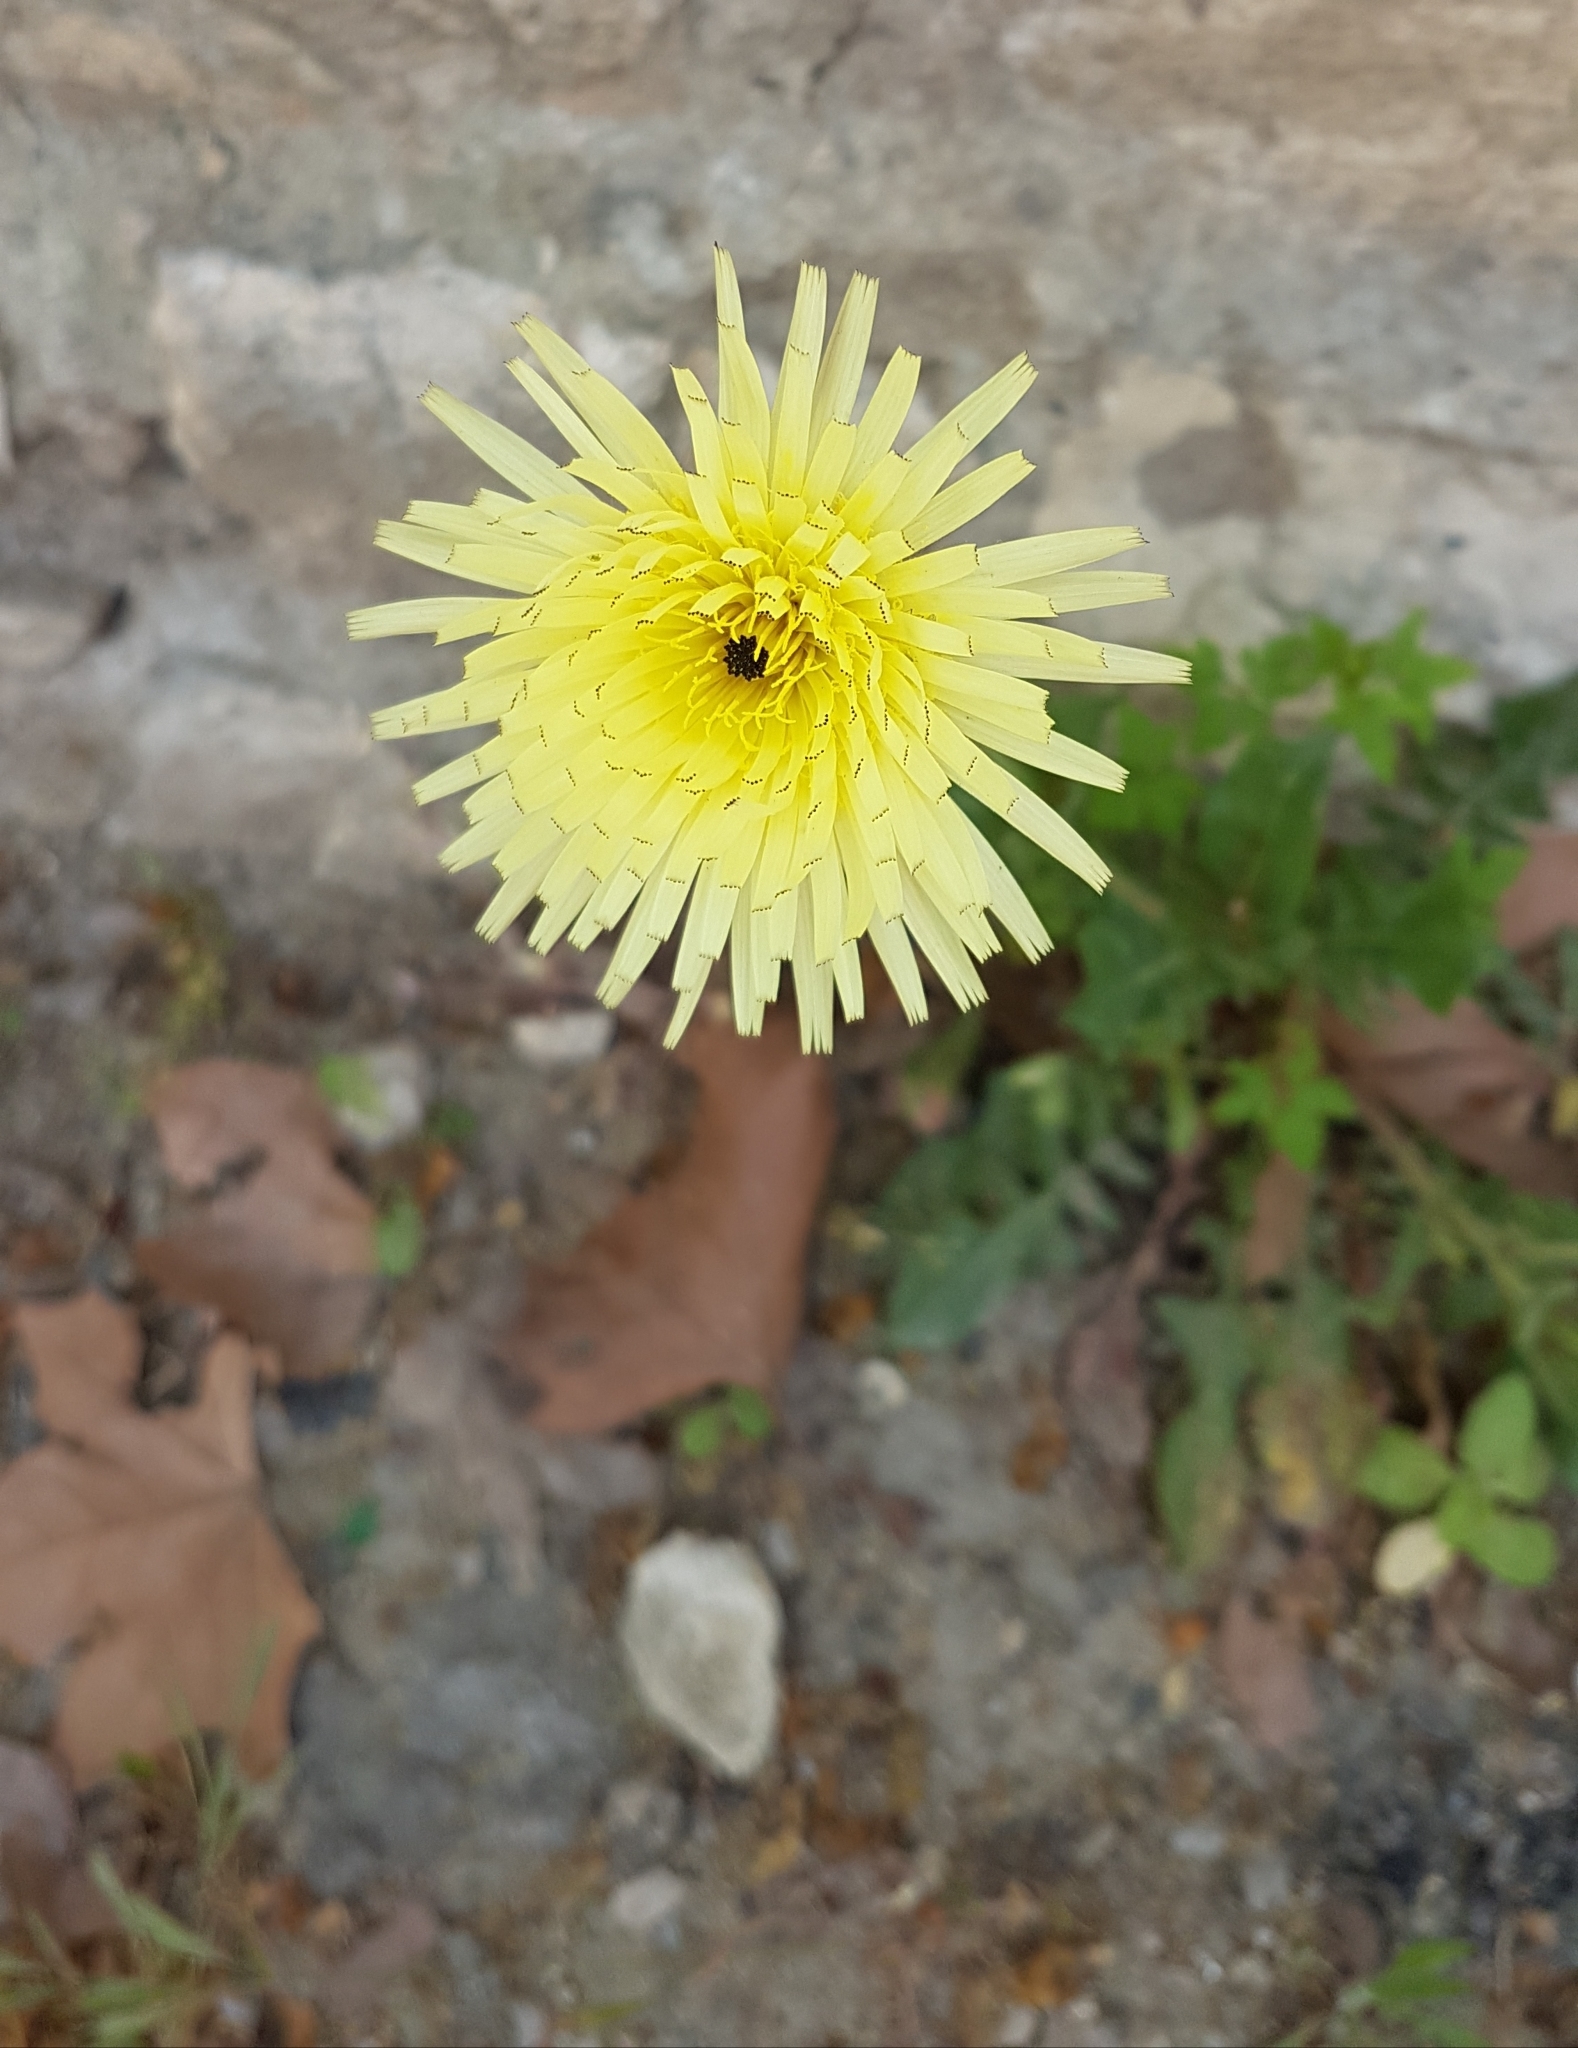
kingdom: Plantae
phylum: Tracheophyta
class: Magnoliopsida
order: Asterales
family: Asteraceae
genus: Urospermum
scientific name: Urospermum dalechampii
